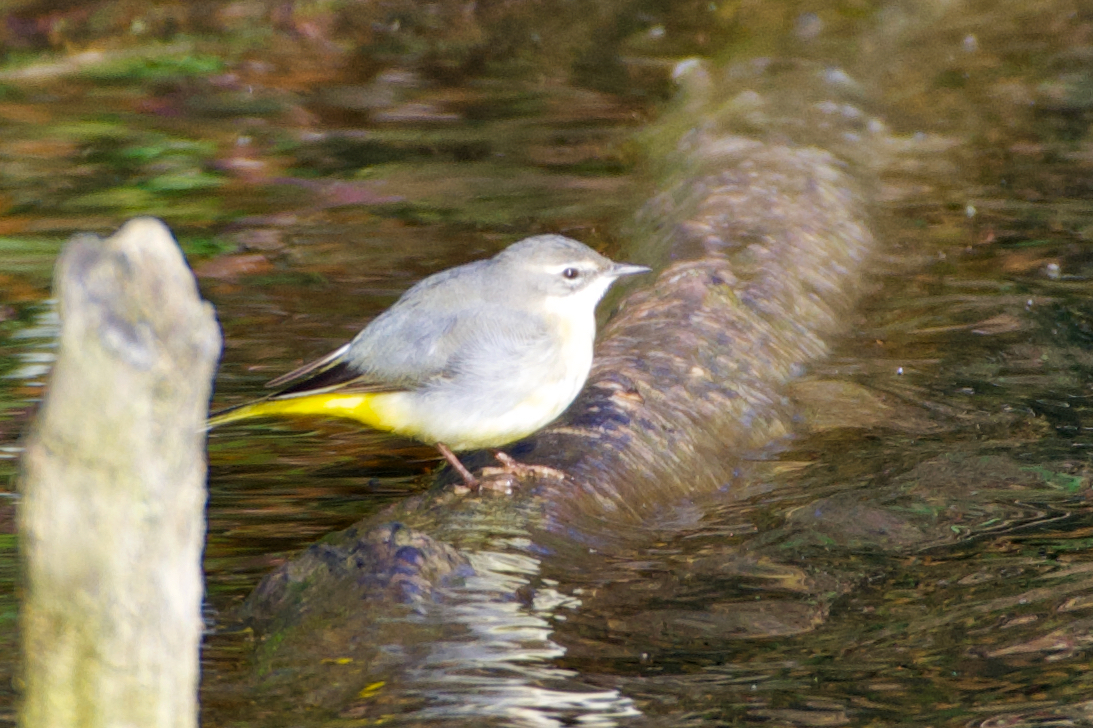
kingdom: Animalia
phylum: Chordata
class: Aves
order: Passeriformes
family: Motacillidae
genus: Motacilla
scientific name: Motacilla cinerea
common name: Grey wagtail
